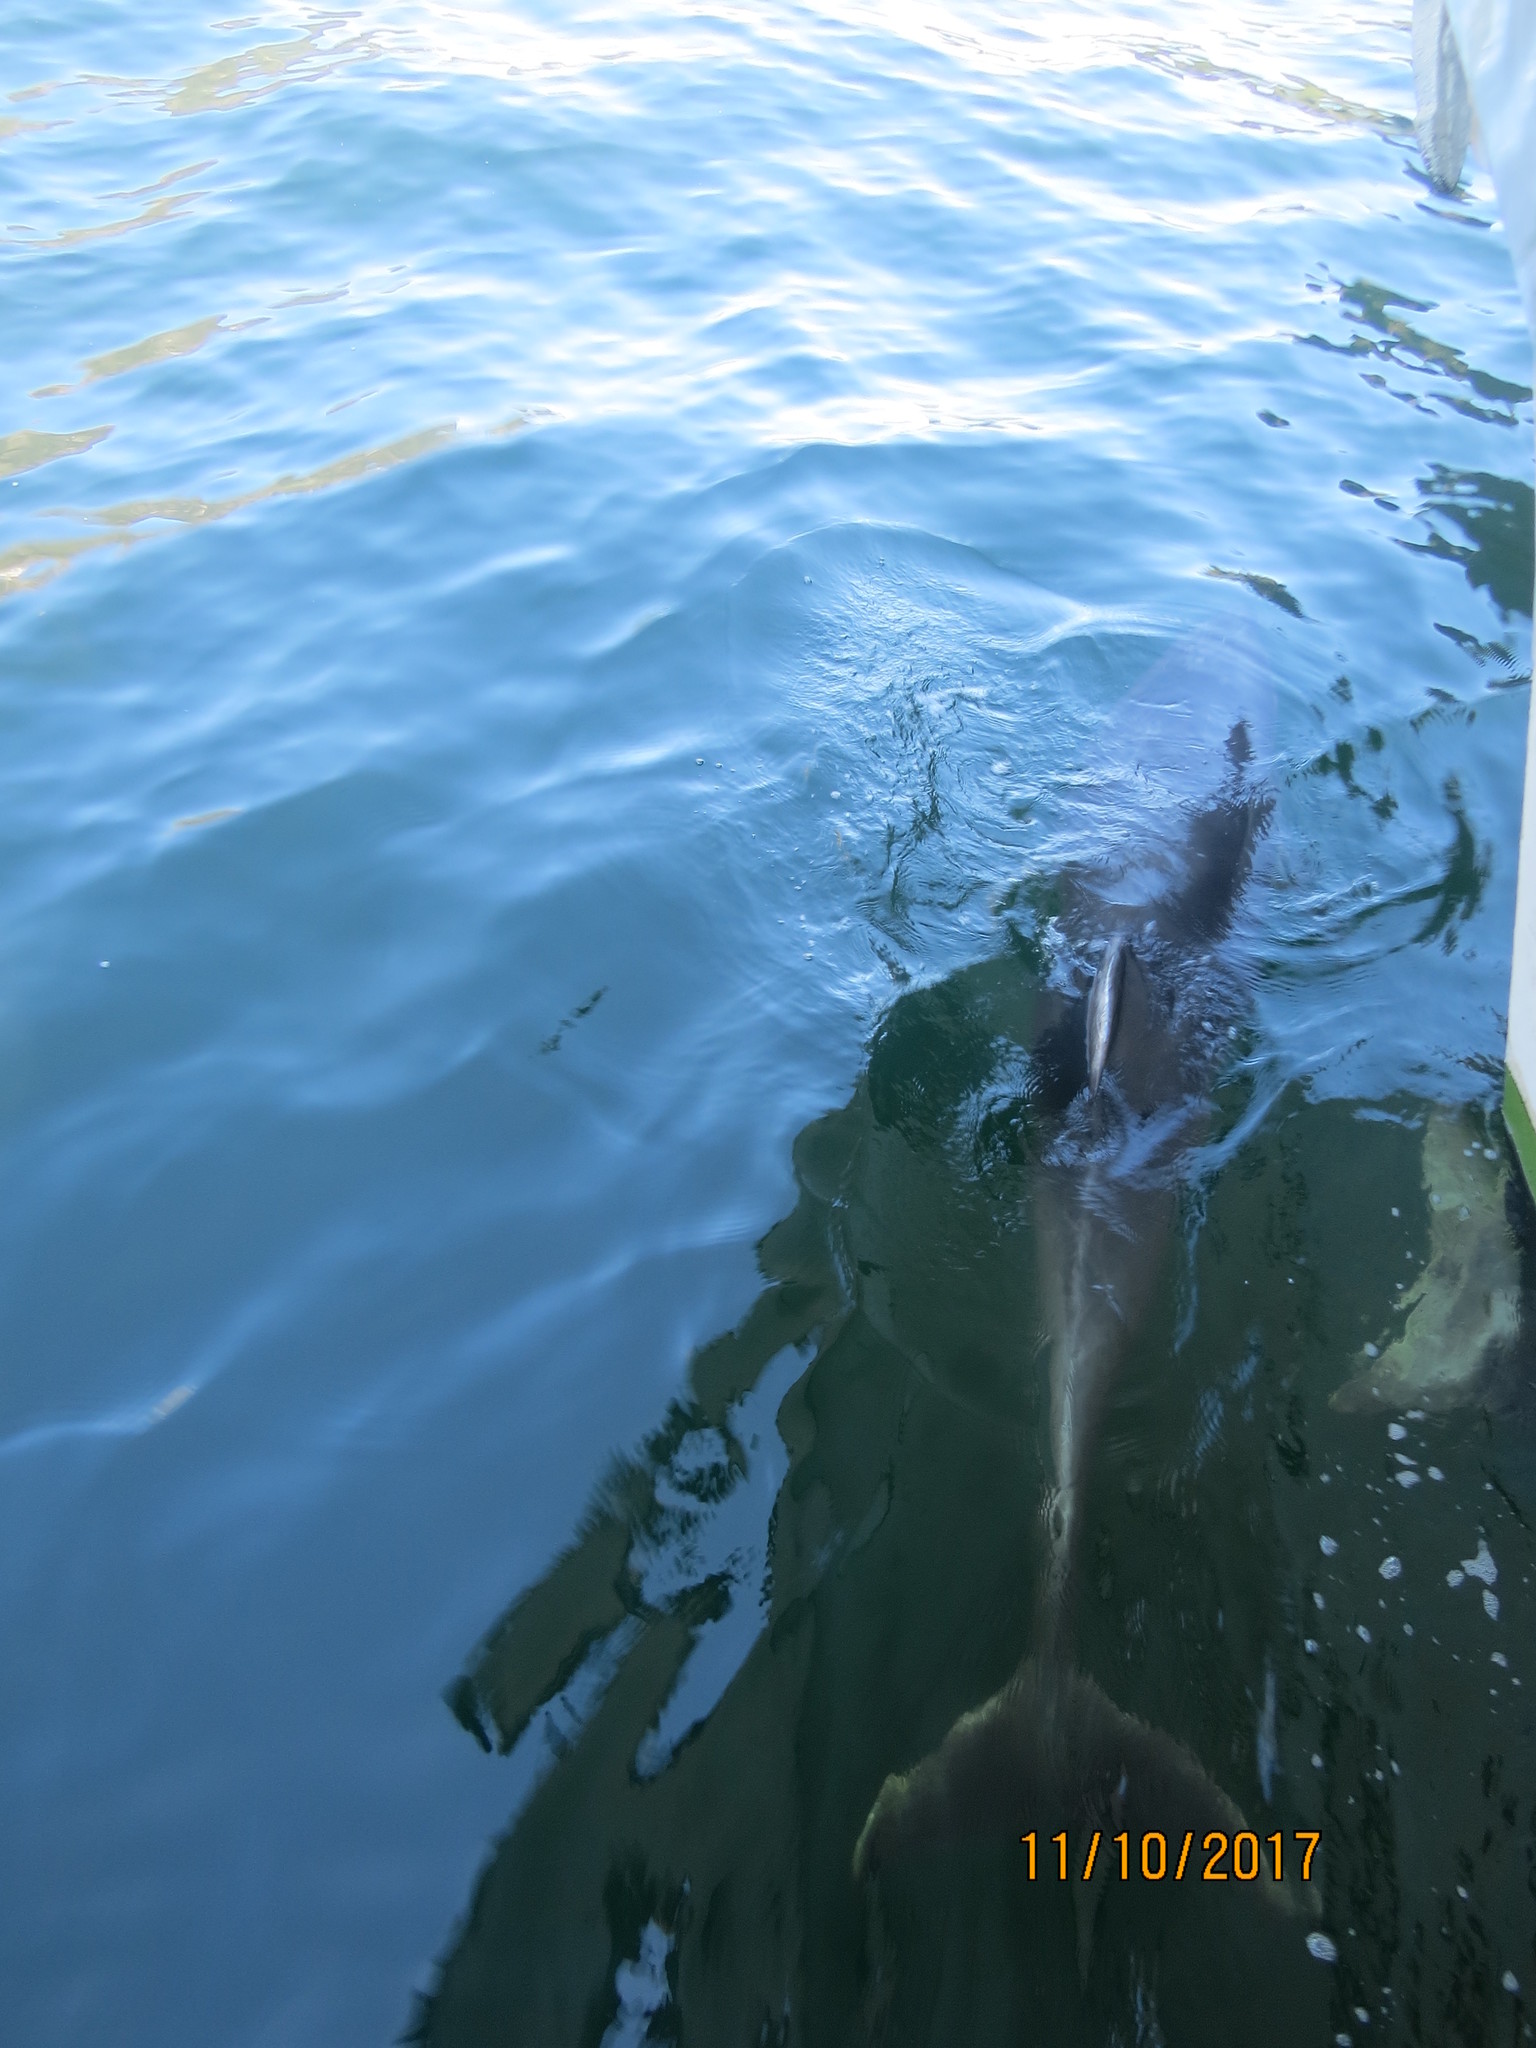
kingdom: Animalia
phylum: Chordata
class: Mammalia
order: Cetacea
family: Delphinidae
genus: Tursiops
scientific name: Tursiops truncatus
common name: Bottlenose dolphin
